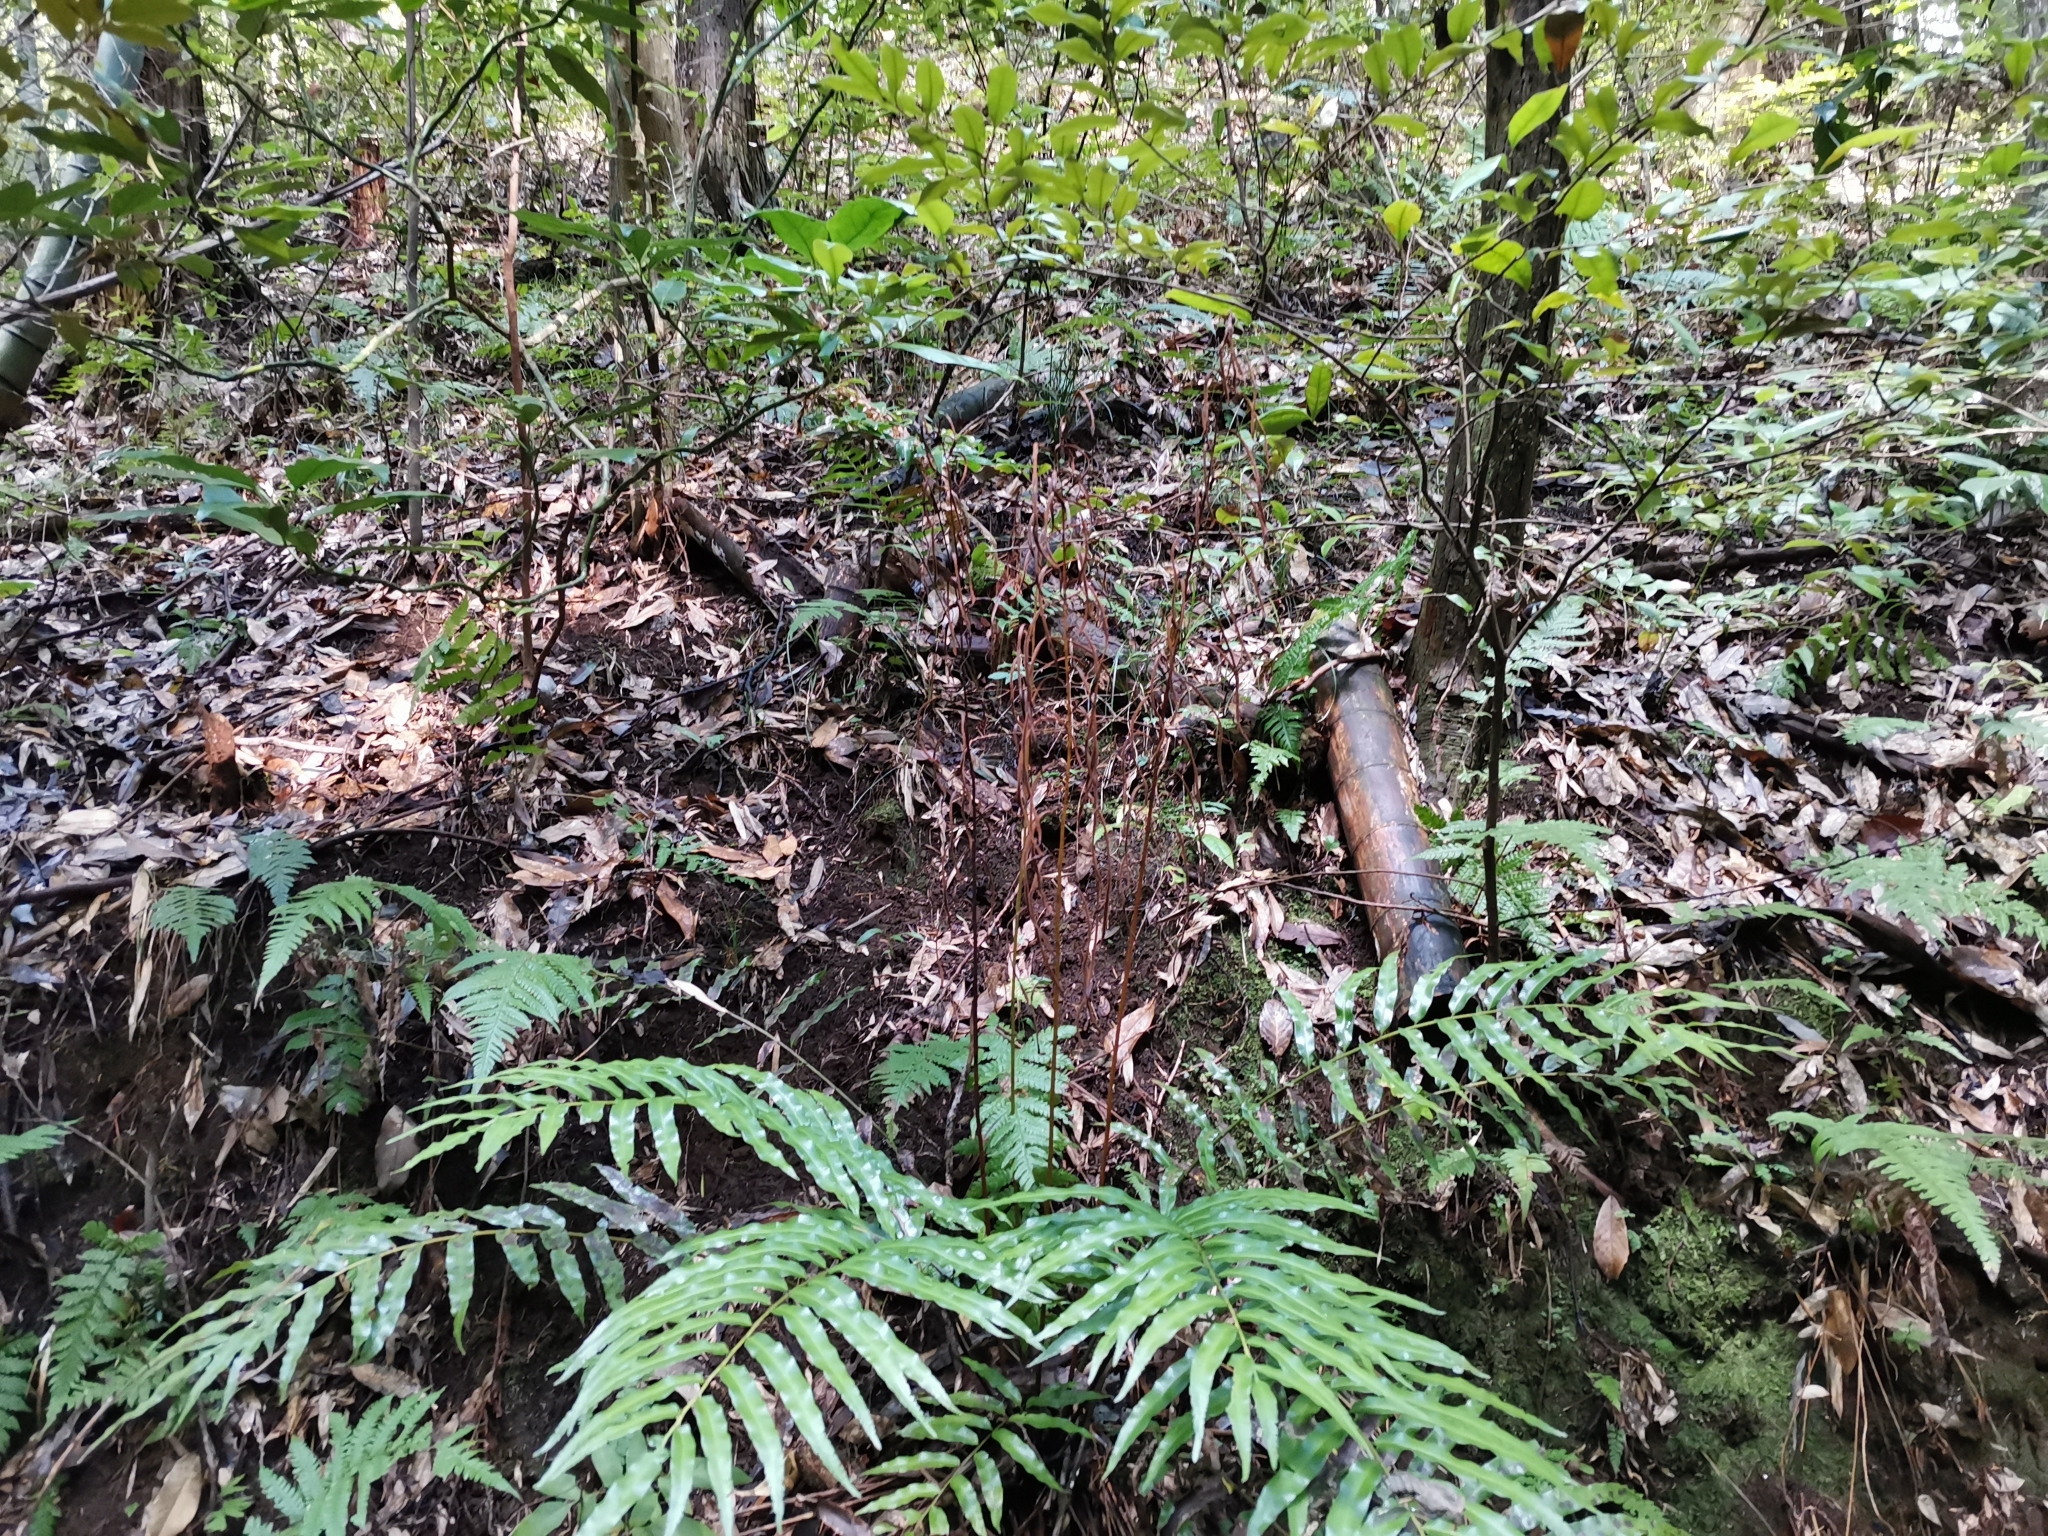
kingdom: Plantae
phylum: Tracheophyta
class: Polypodiopsida
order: Cyatheales
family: Plagiogyriaceae
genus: Plagiogyria
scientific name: Plagiogyria euphlebia
